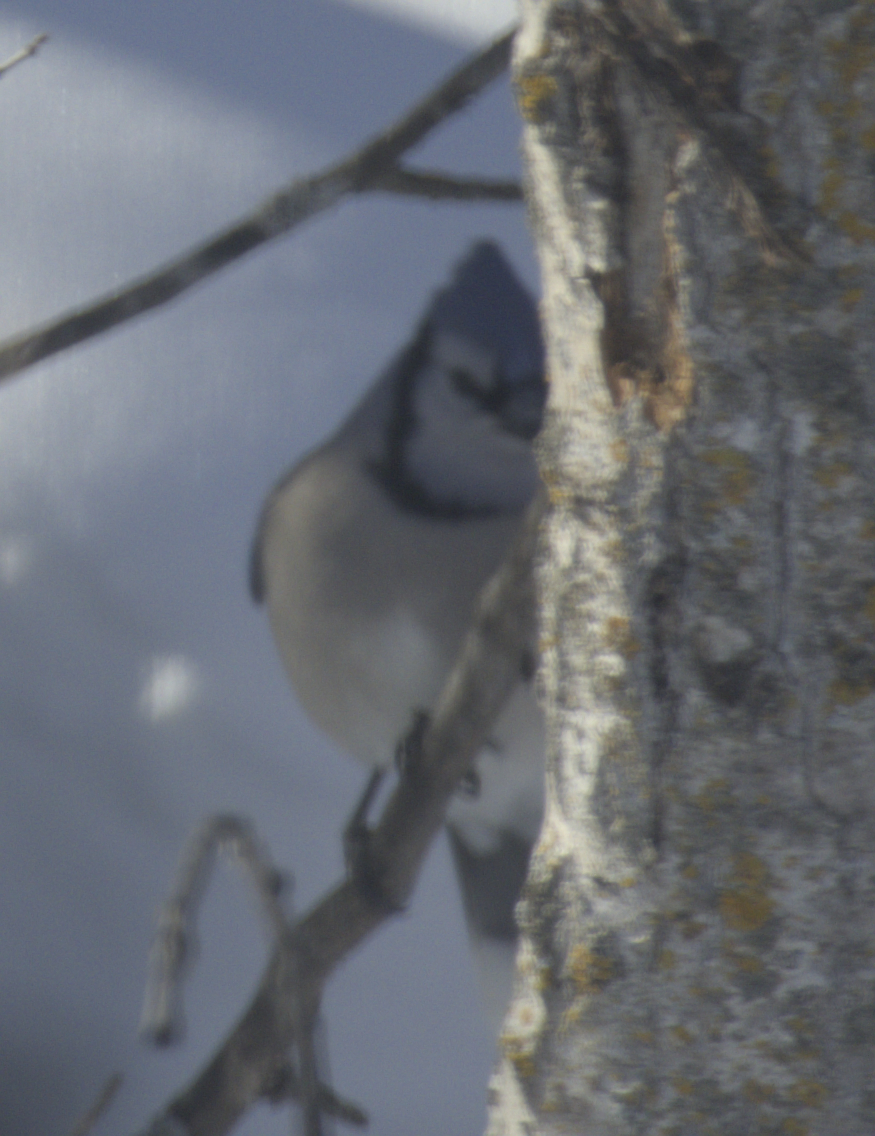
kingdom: Animalia
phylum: Chordata
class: Aves
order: Passeriformes
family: Corvidae
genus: Cyanocitta
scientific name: Cyanocitta cristata
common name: Blue jay
